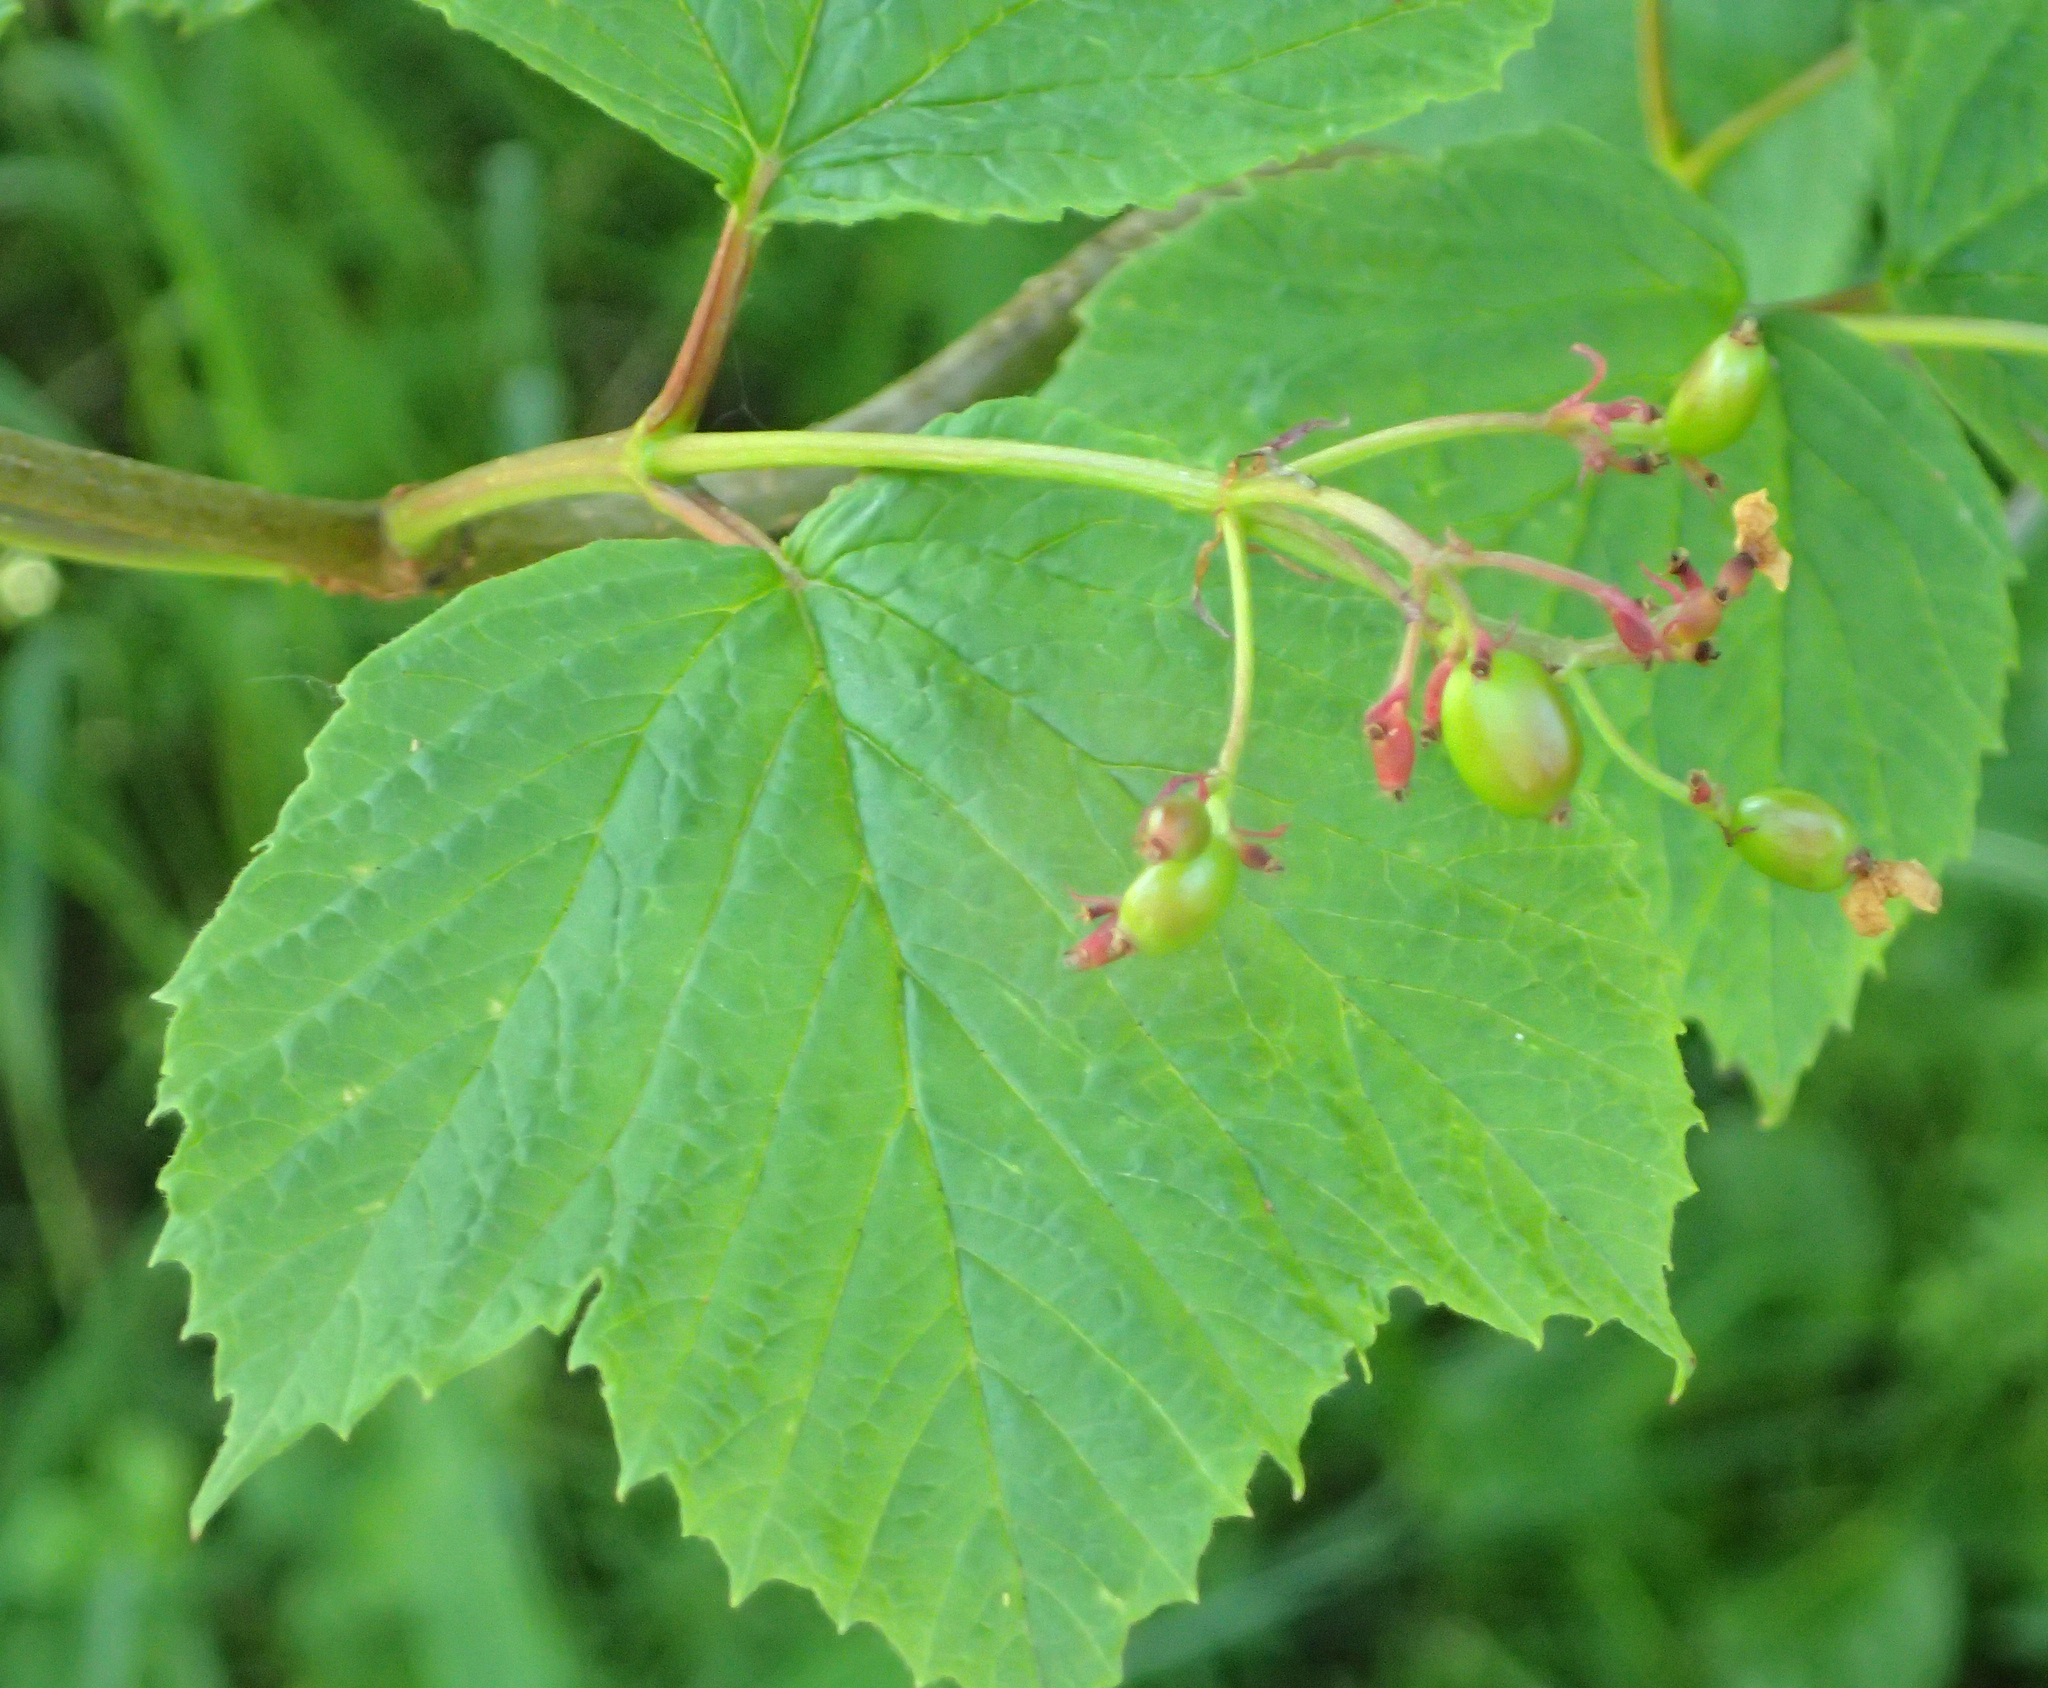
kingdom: Plantae
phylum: Tracheophyta
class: Magnoliopsida
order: Dipsacales
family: Viburnaceae
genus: Viburnum
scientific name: Viburnum edule
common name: Mooseberry
